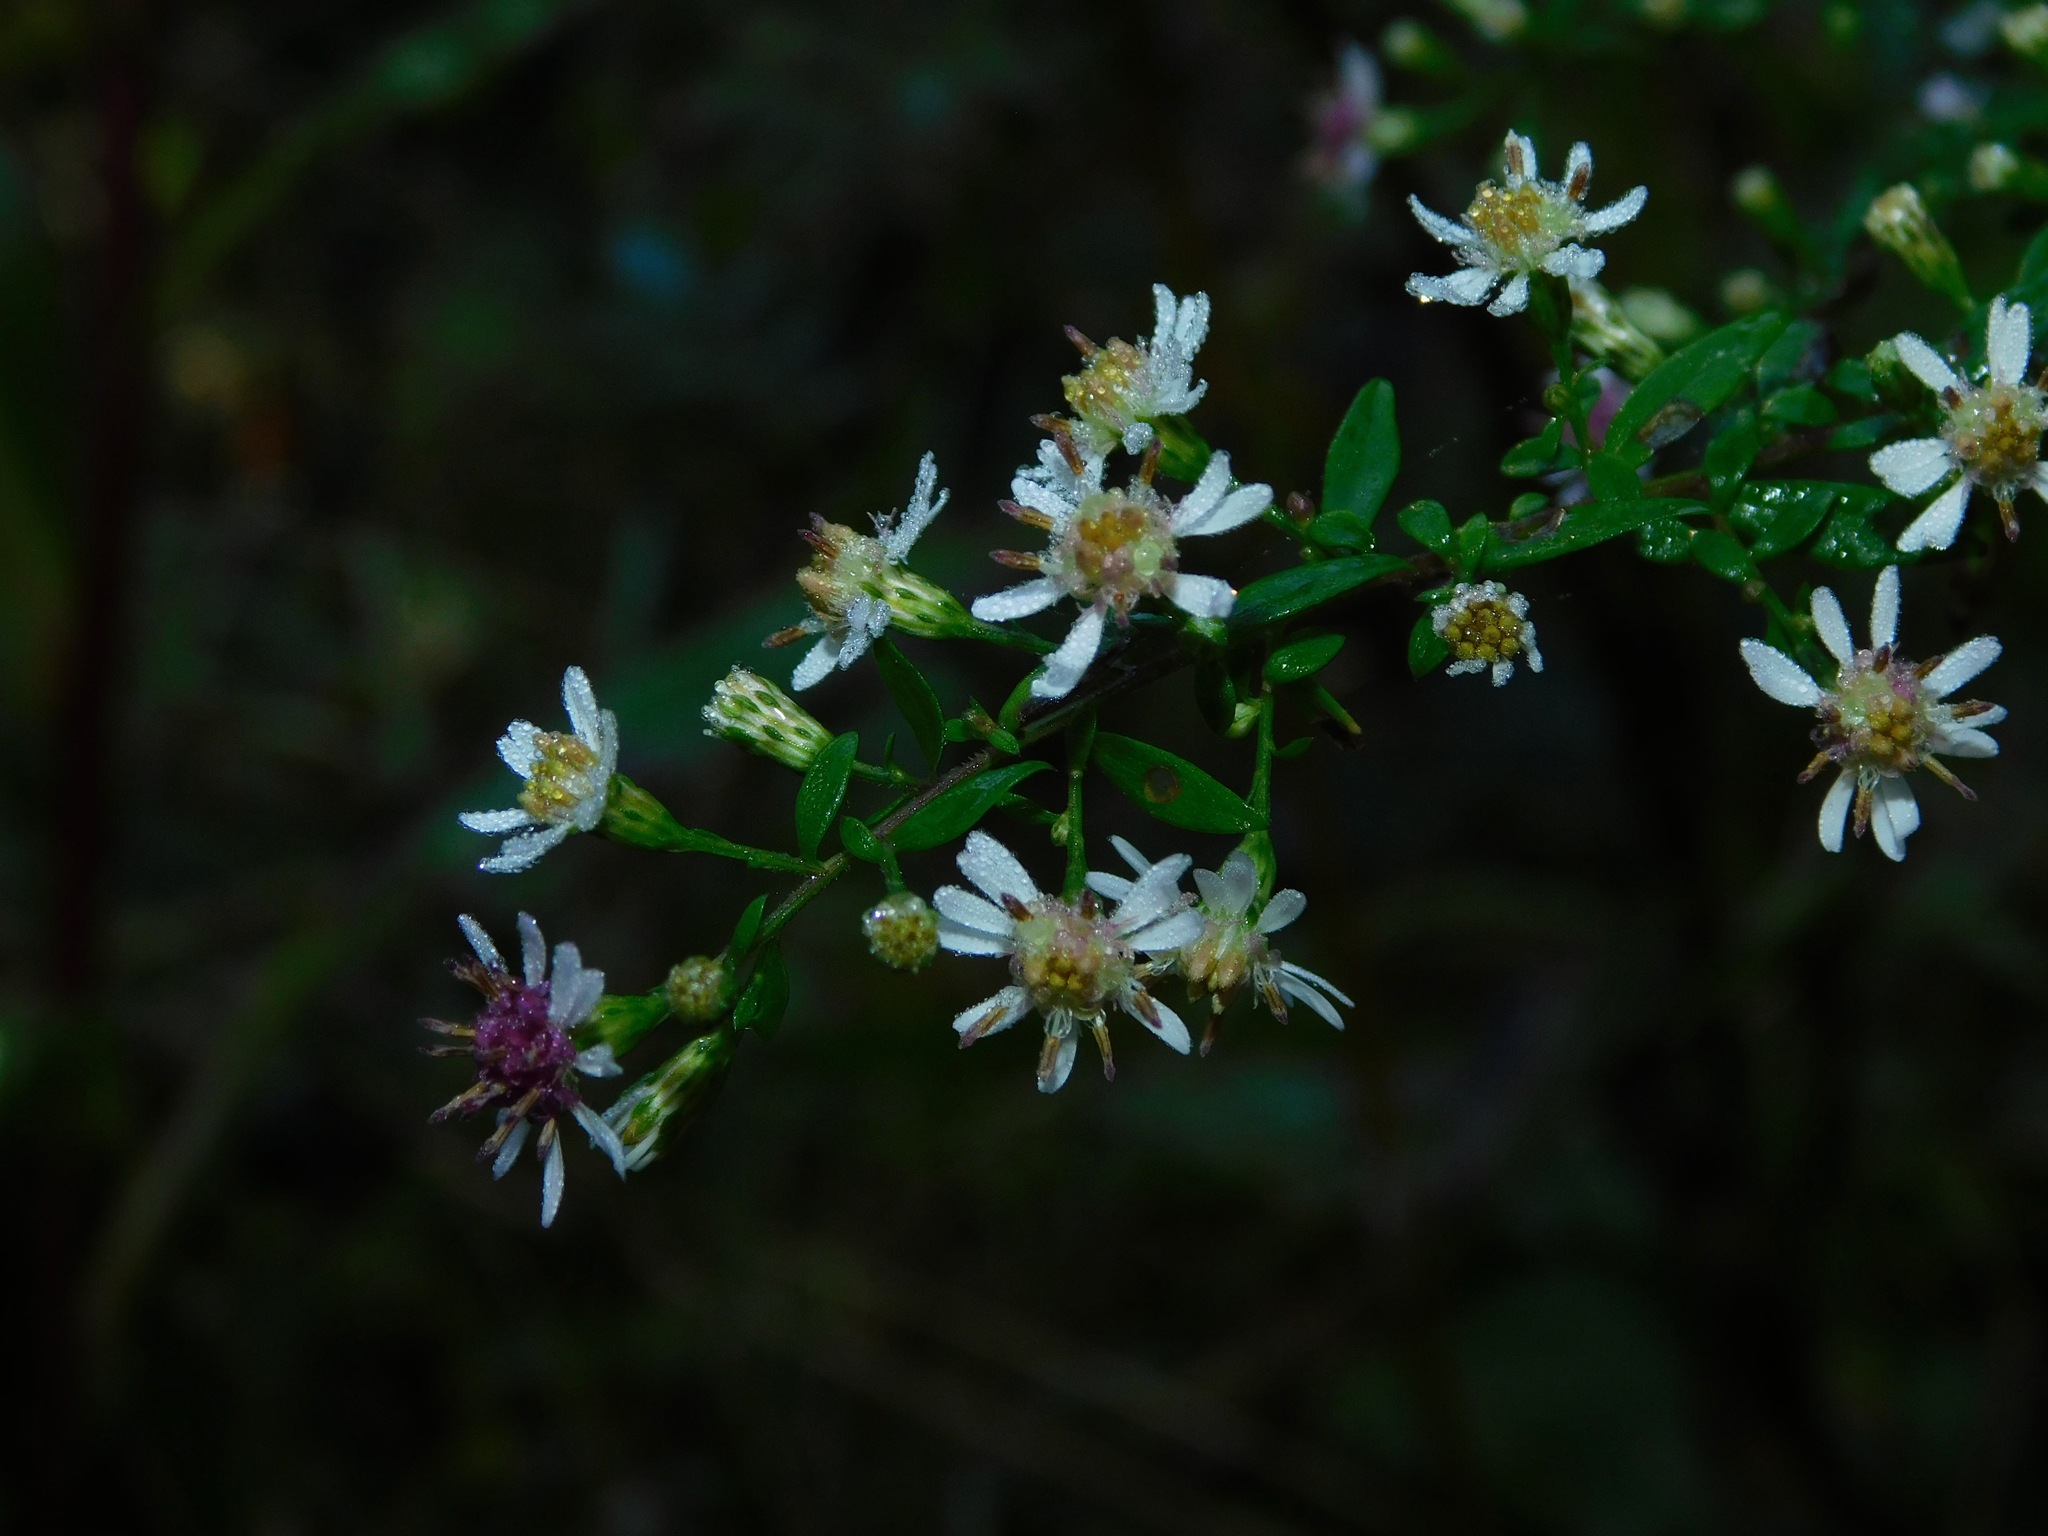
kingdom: Plantae
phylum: Tracheophyta
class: Magnoliopsida
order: Asterales
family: Asteraceae
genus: Symphyotrichum
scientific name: Symphyotrichum lateriflorum
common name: Calico aster
